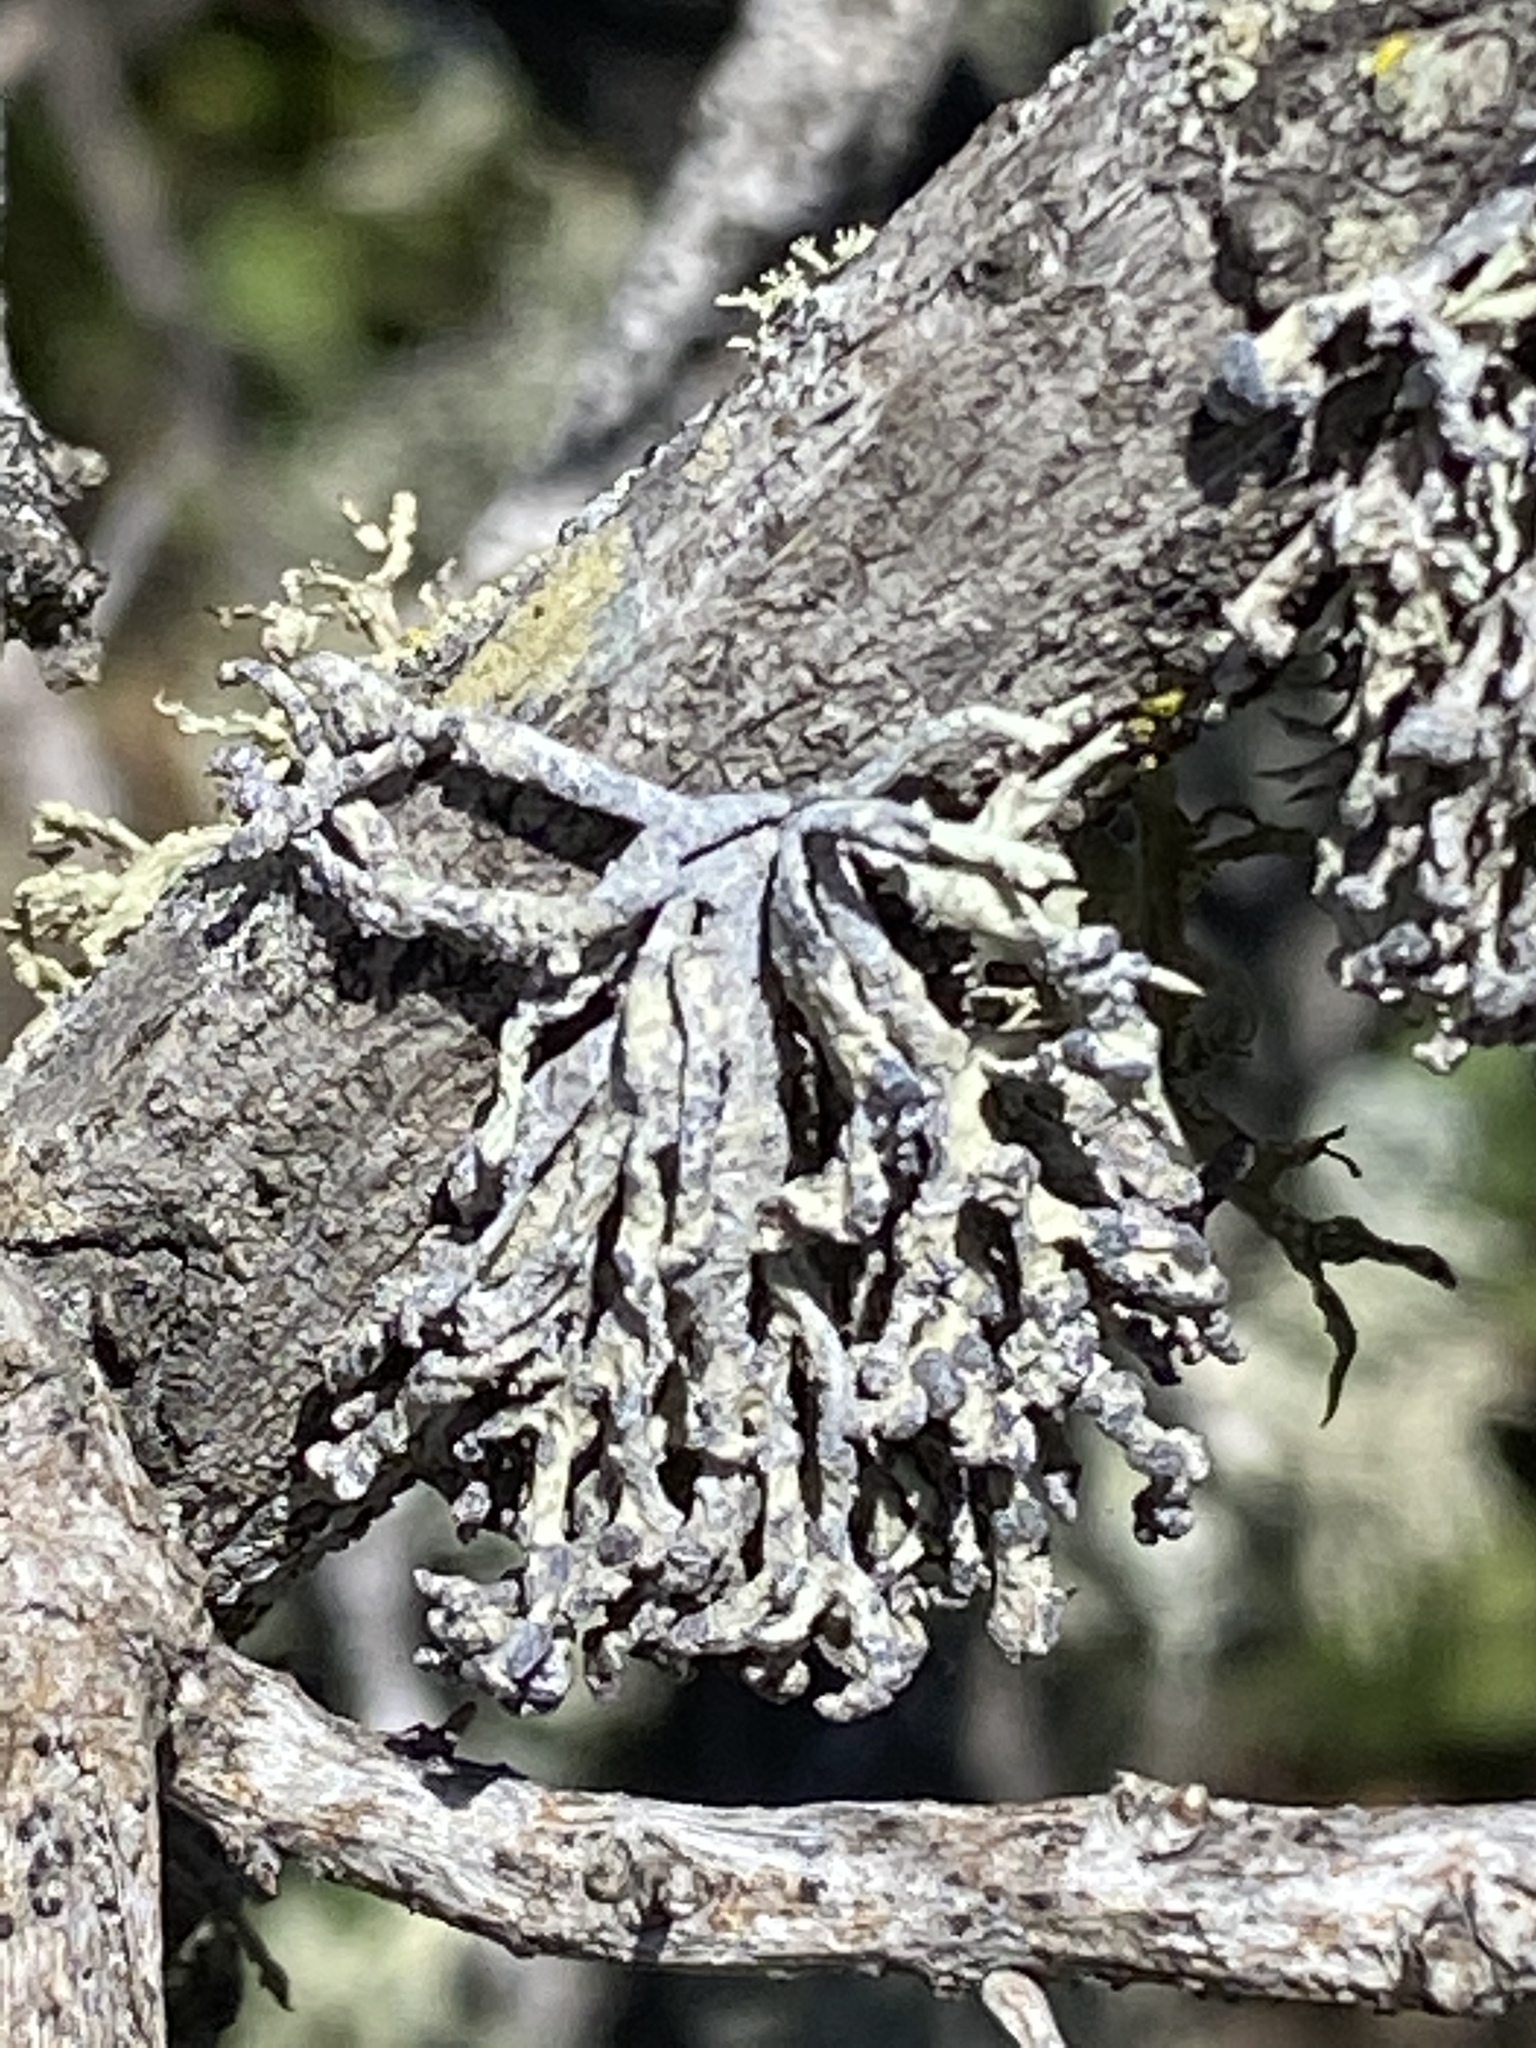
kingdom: Fungi
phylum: Ascomycota
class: Lecanoromycetes
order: Lecanorales
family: Ramalinaceae
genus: Niebla
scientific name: Niebla cephalota
